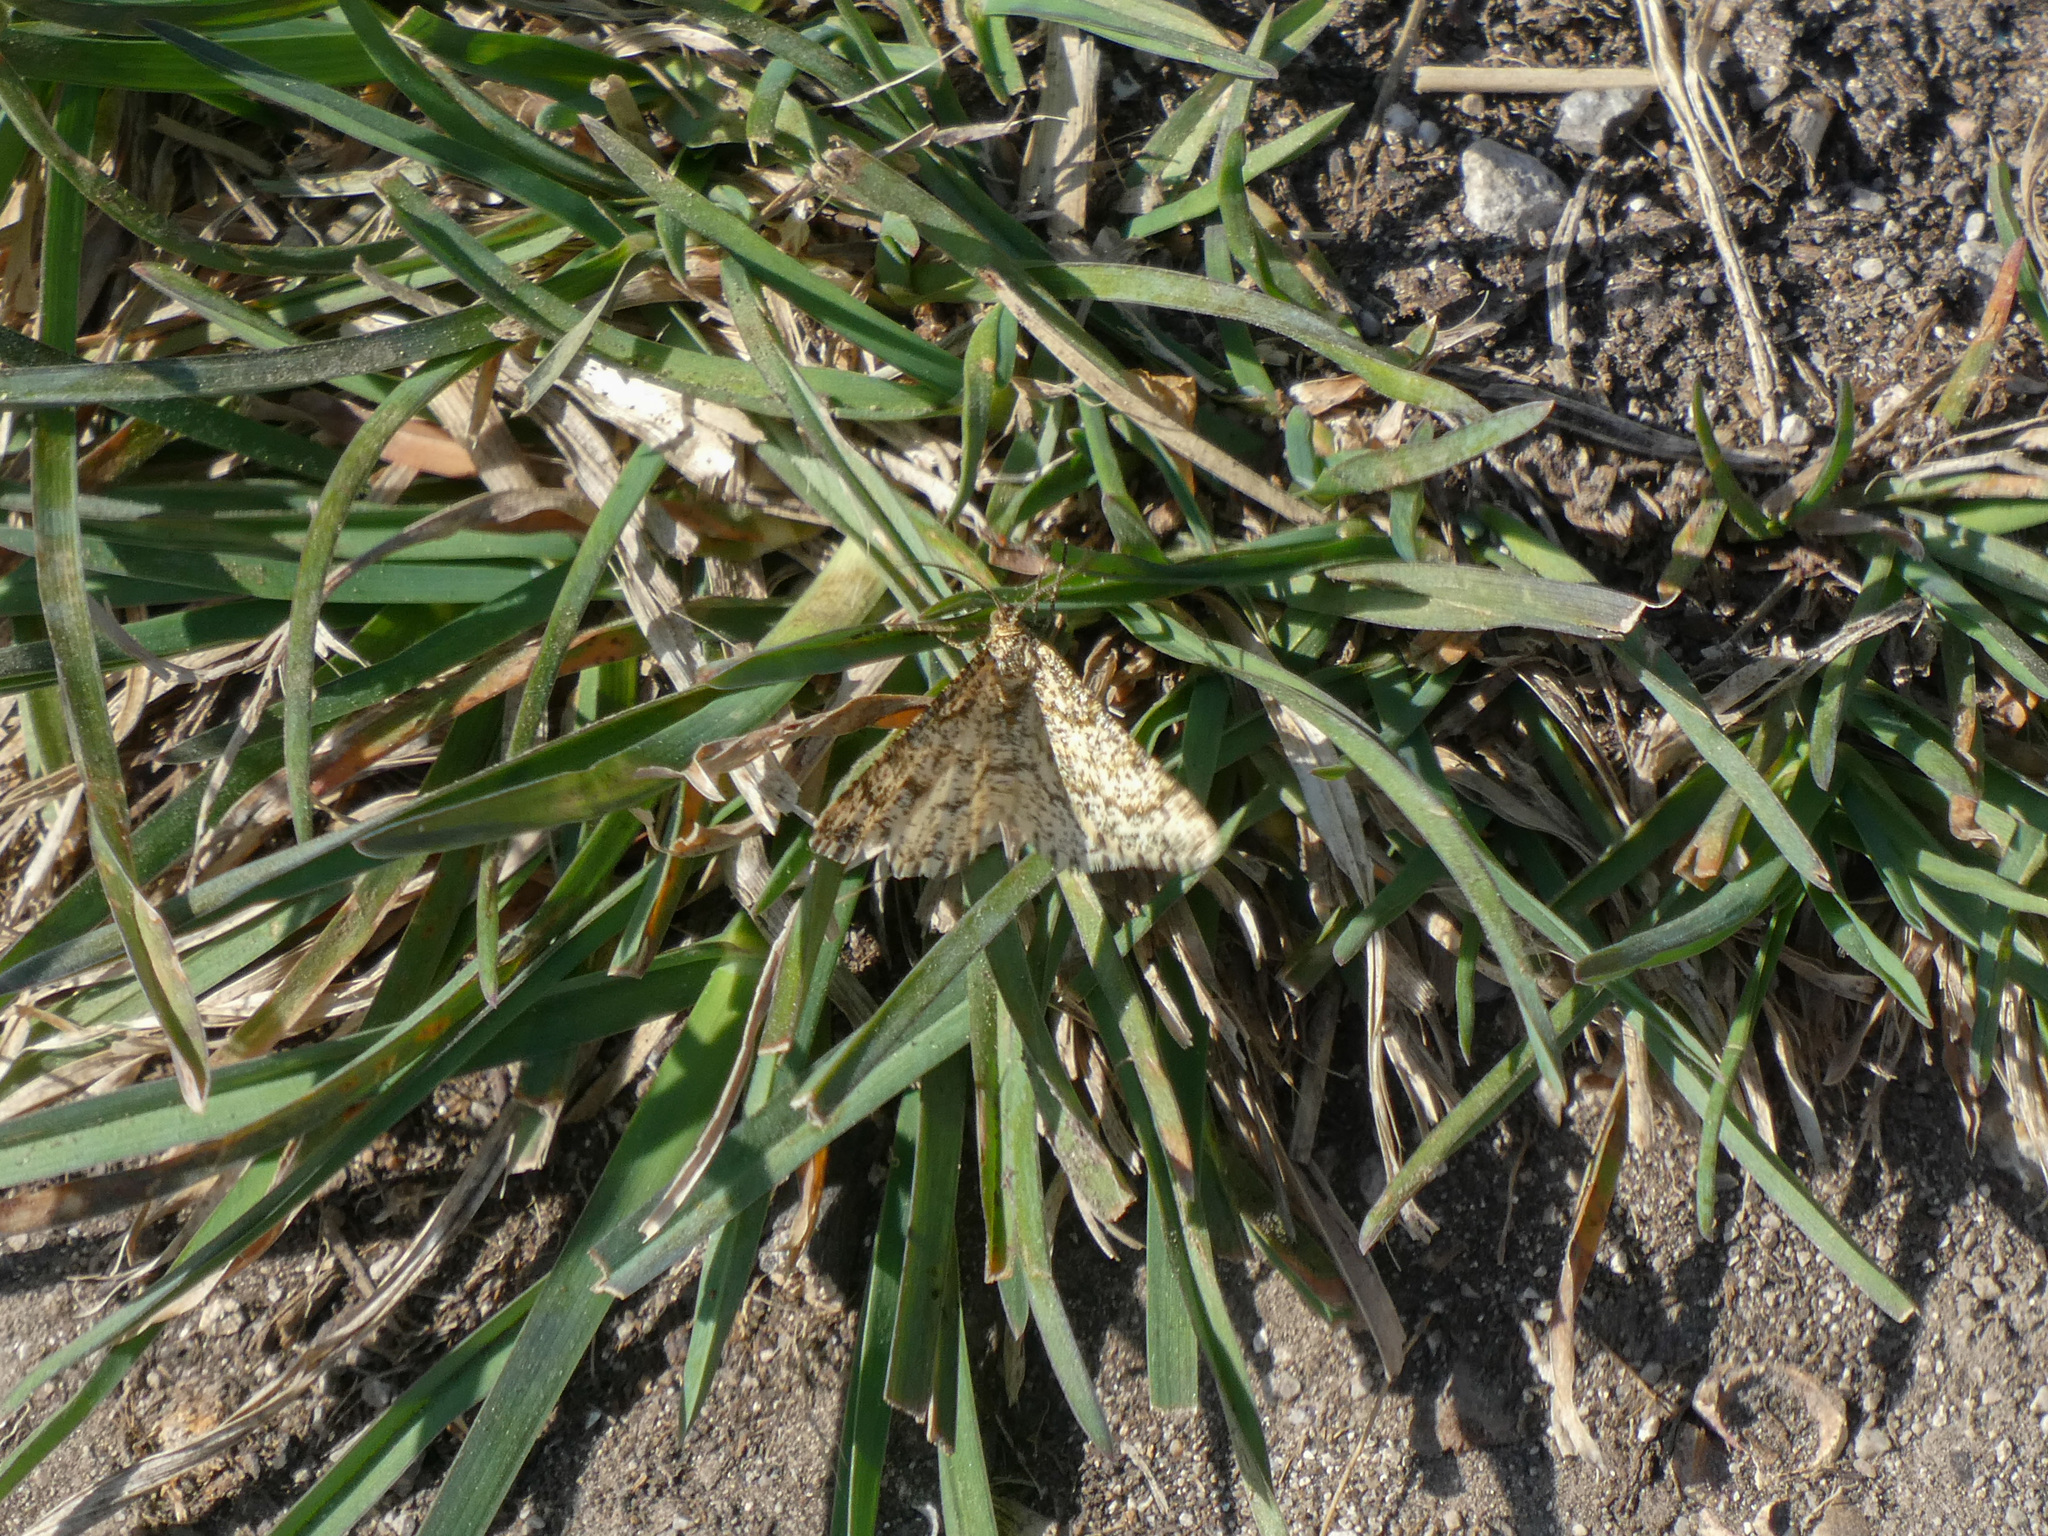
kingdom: Animalia
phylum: Arthropoda
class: Insecta
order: Lepidoptera
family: Geometridae
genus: Heliomata
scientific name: Heliomata glarearia
